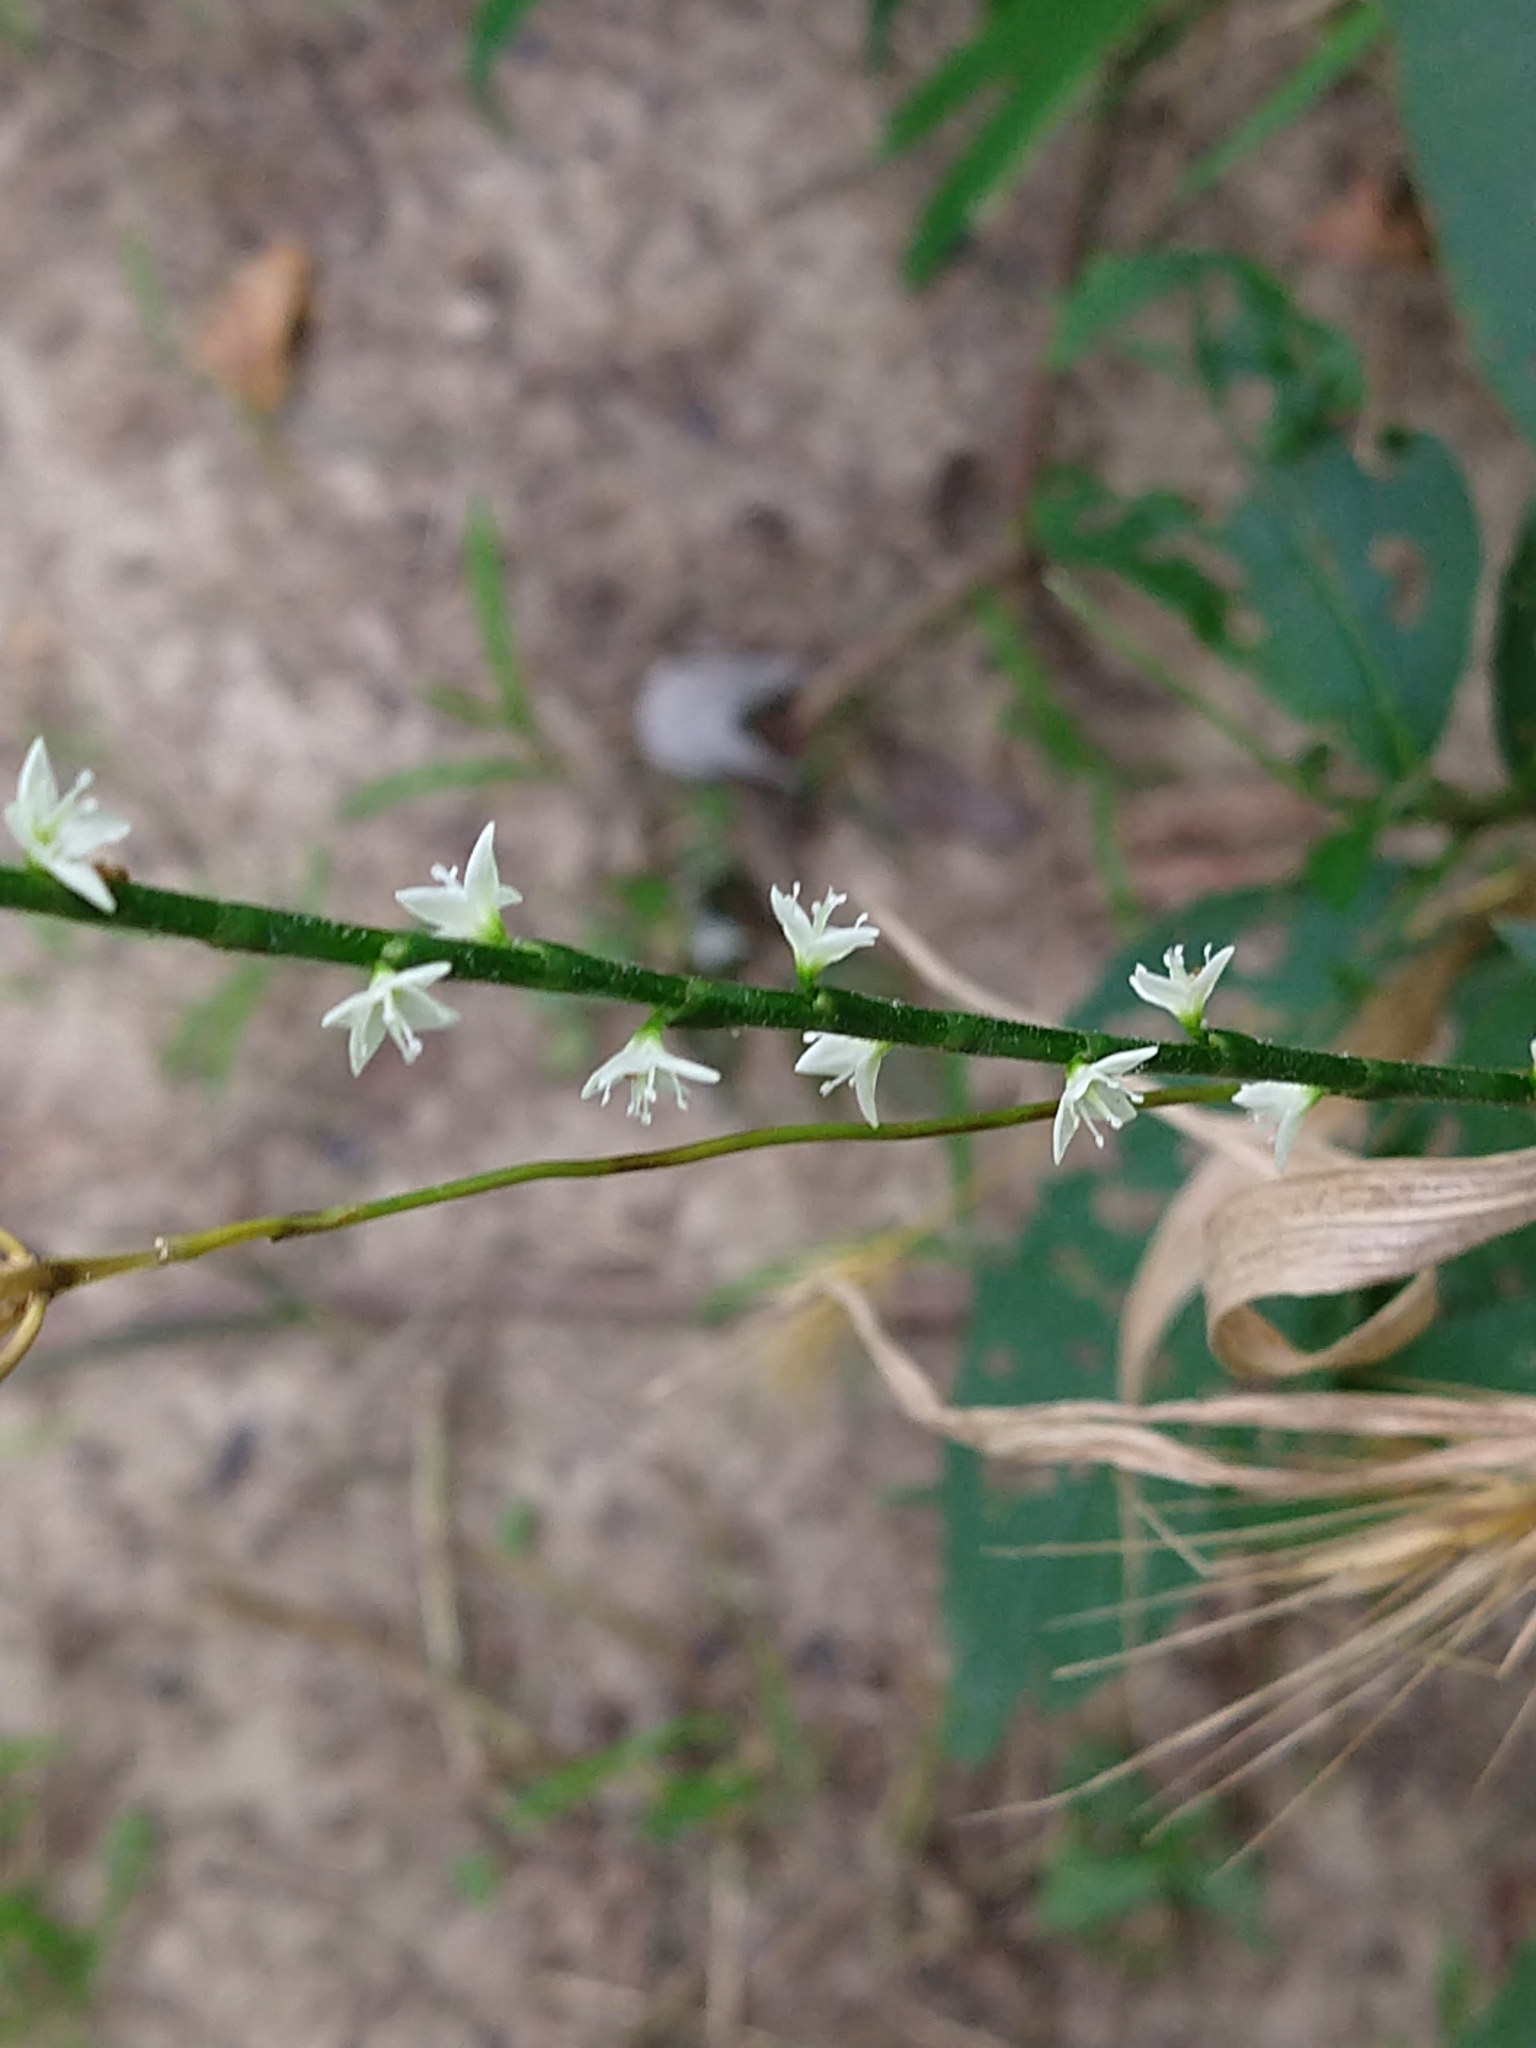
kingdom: Plantae
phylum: Tracheophyta
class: Magnoliopsida
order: Caryophyllales
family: Polygonaceae
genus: Persicaria
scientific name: Persicaria virginiana
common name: Jumpseed
